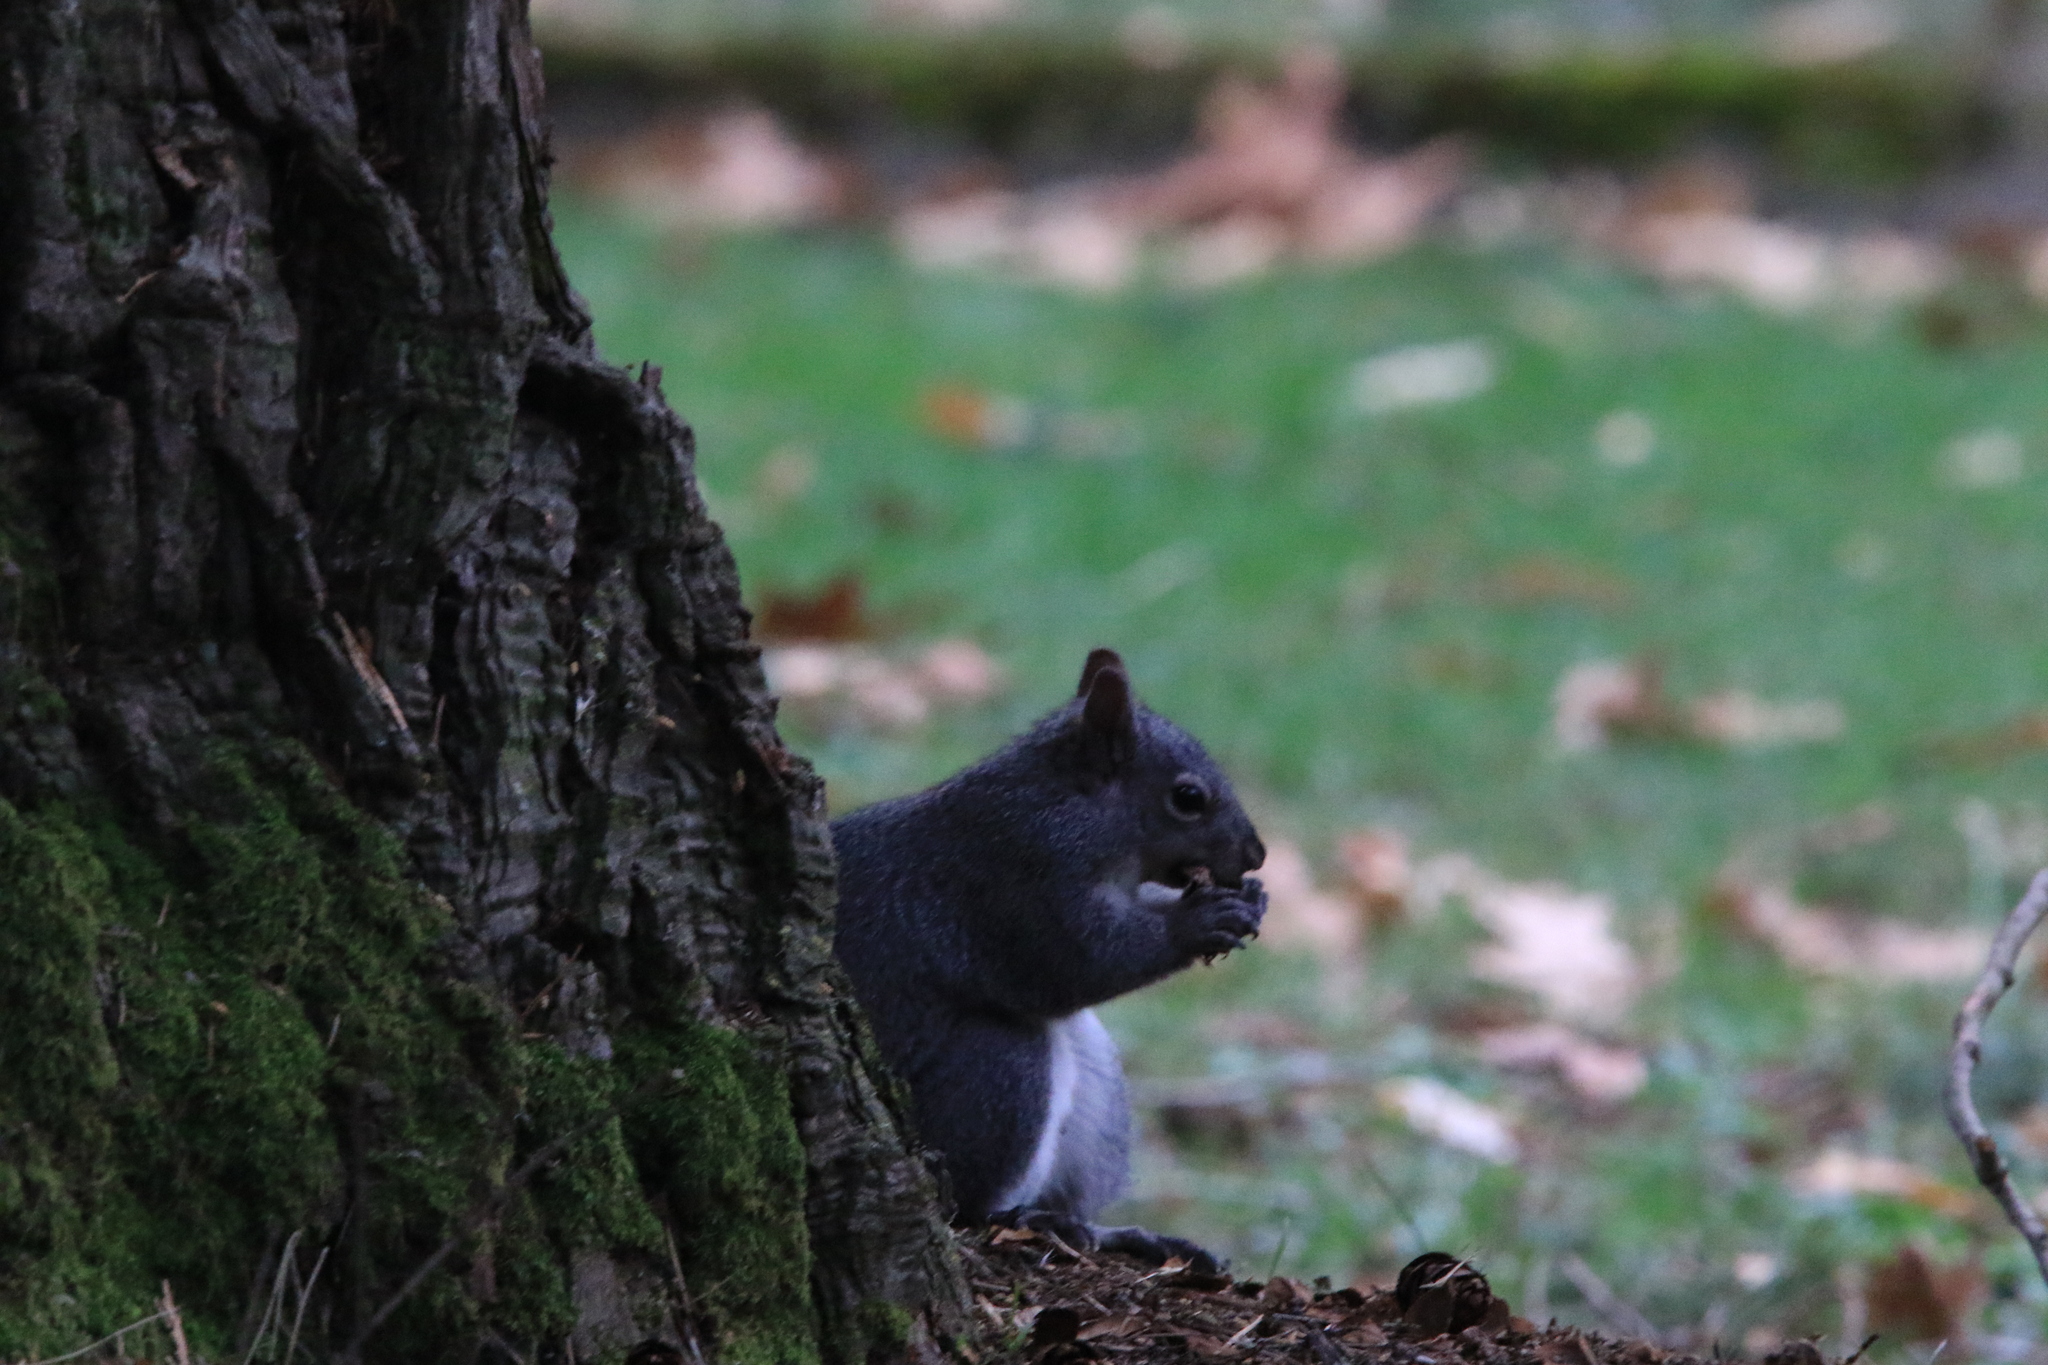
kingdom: Animalia
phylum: Chordata
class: Mammalia
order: Rodentia
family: Sciuridae
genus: Sciurus
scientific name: Sciurus griseus
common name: Western gray squirrel
